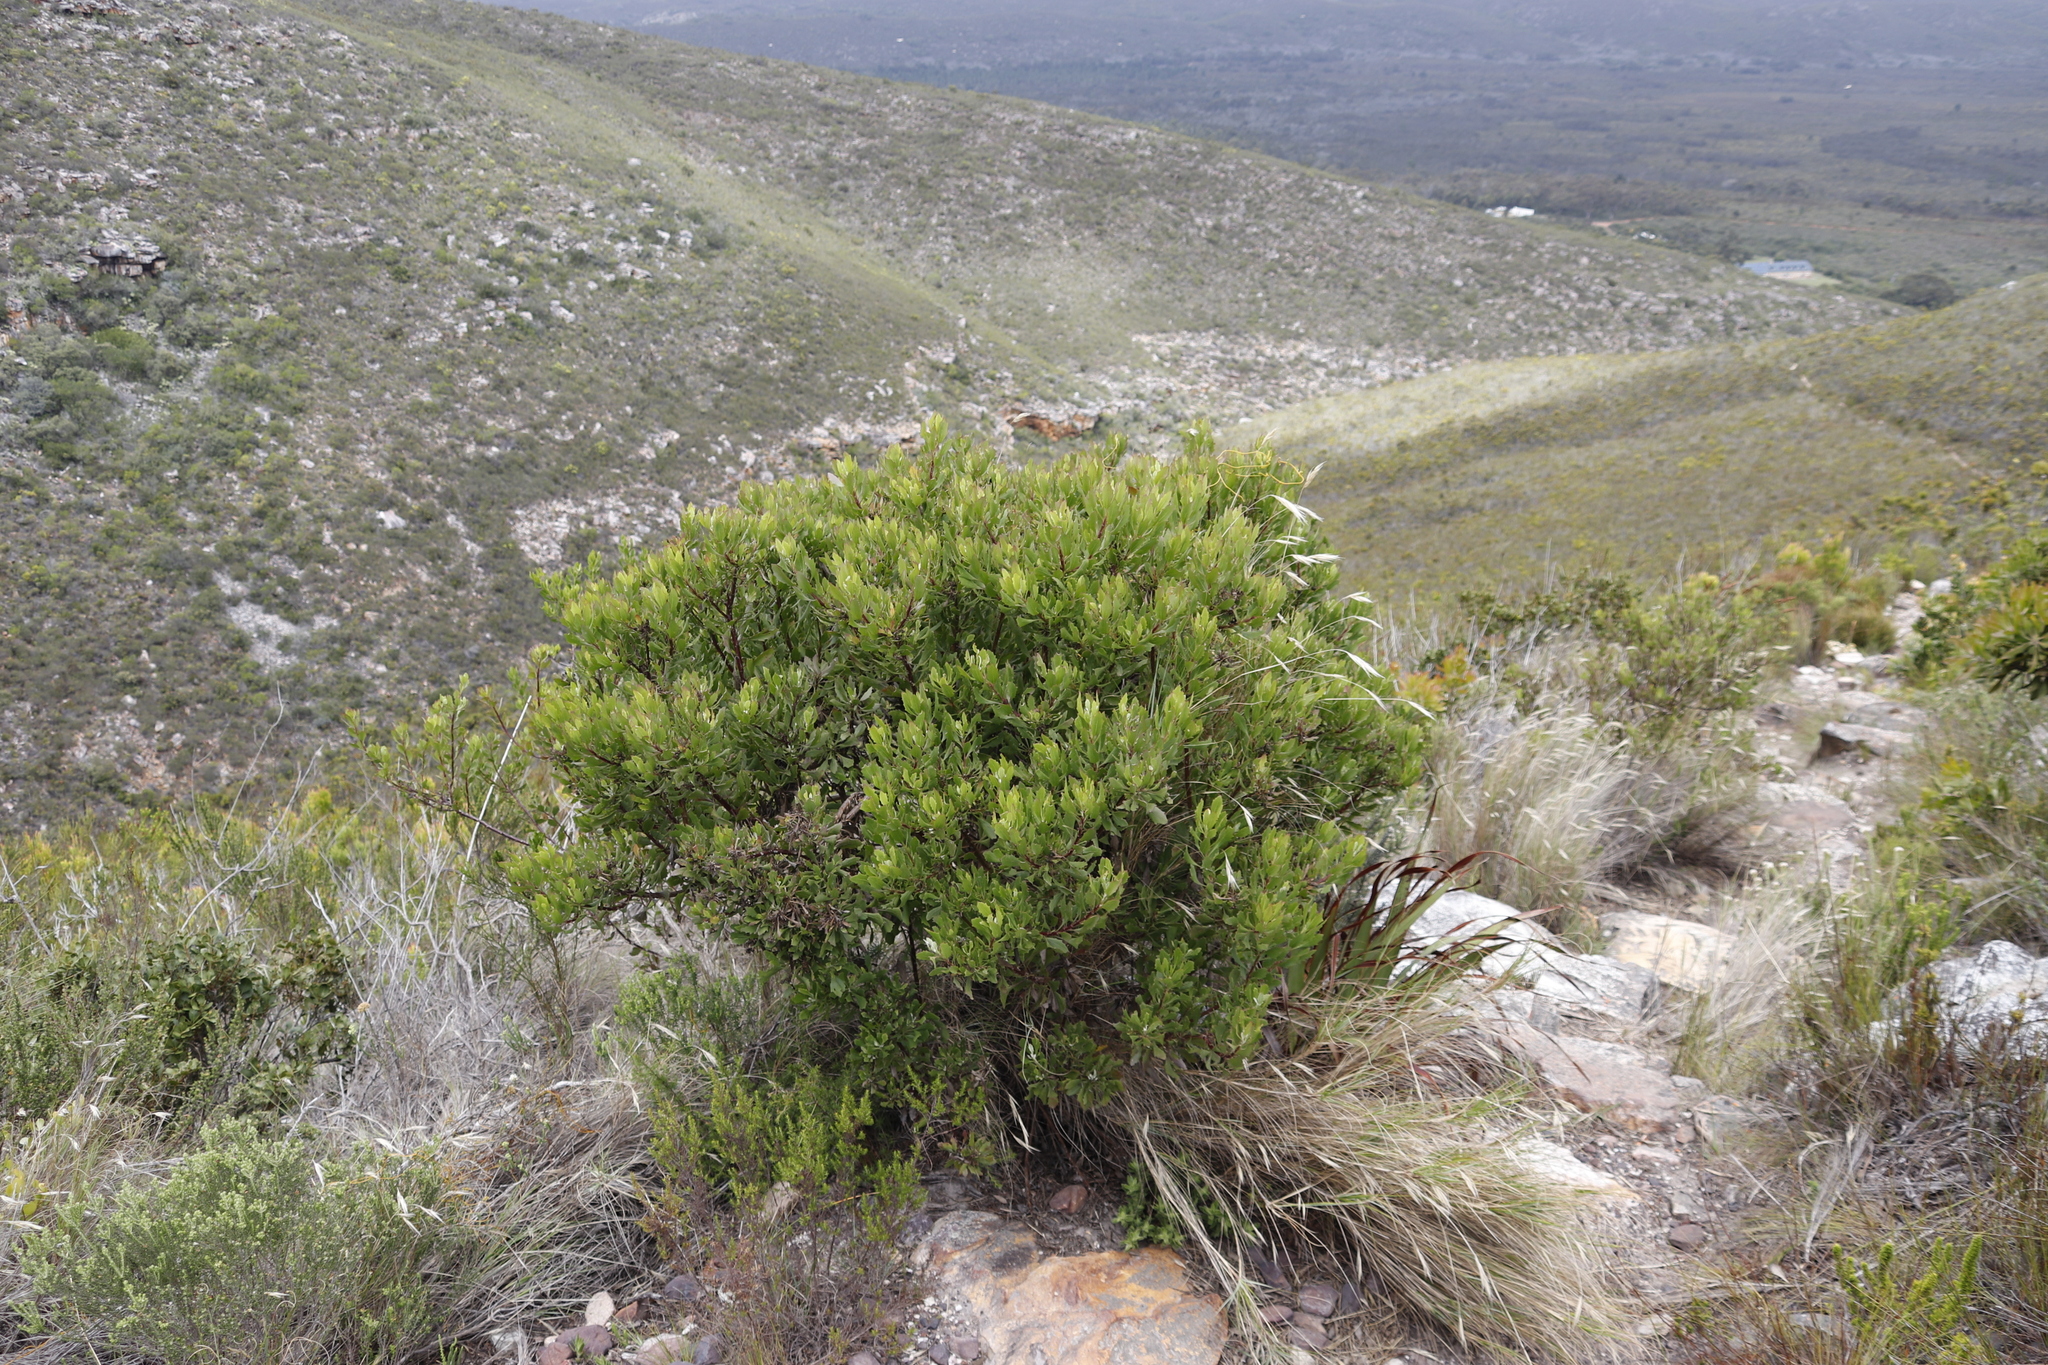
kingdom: Plantae
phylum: Tracheophyta
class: Magnoliopsida
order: Asterales
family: Asteraceae
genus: Osteospermum
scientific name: Osteospermum moniliferum
